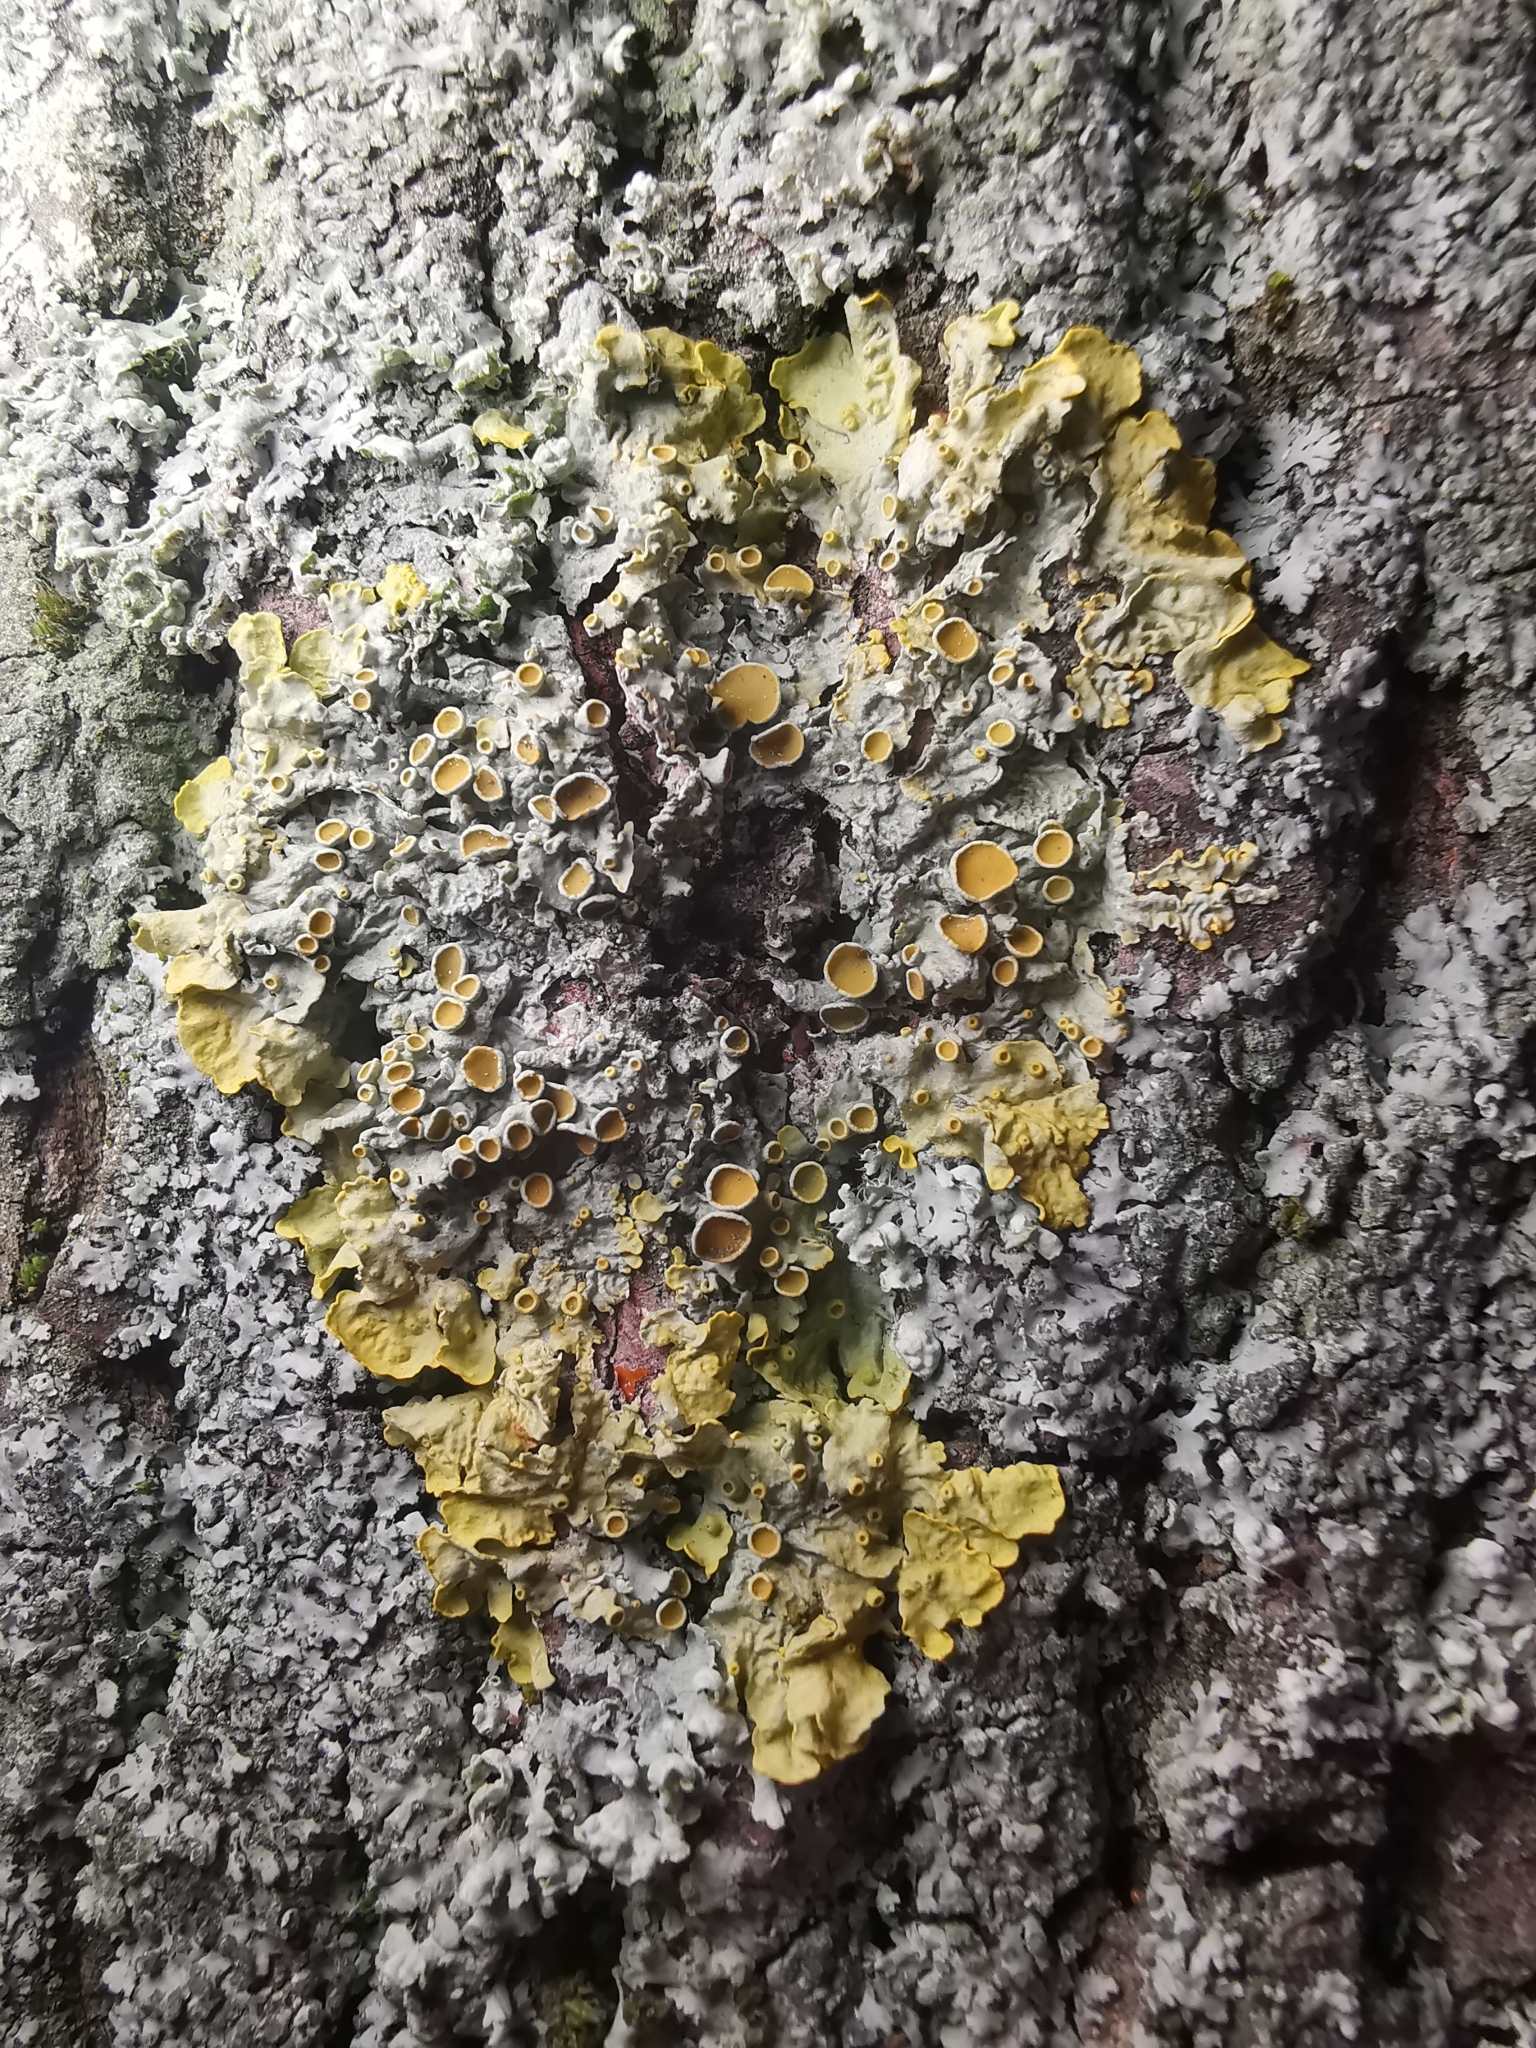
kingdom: Fungi
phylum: Ascomycota
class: Lecanoromycetes
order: Teloschistales
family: Teloschistaceae
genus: Xanthoria
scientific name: Xanthoria parietina
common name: Common orange lichen
